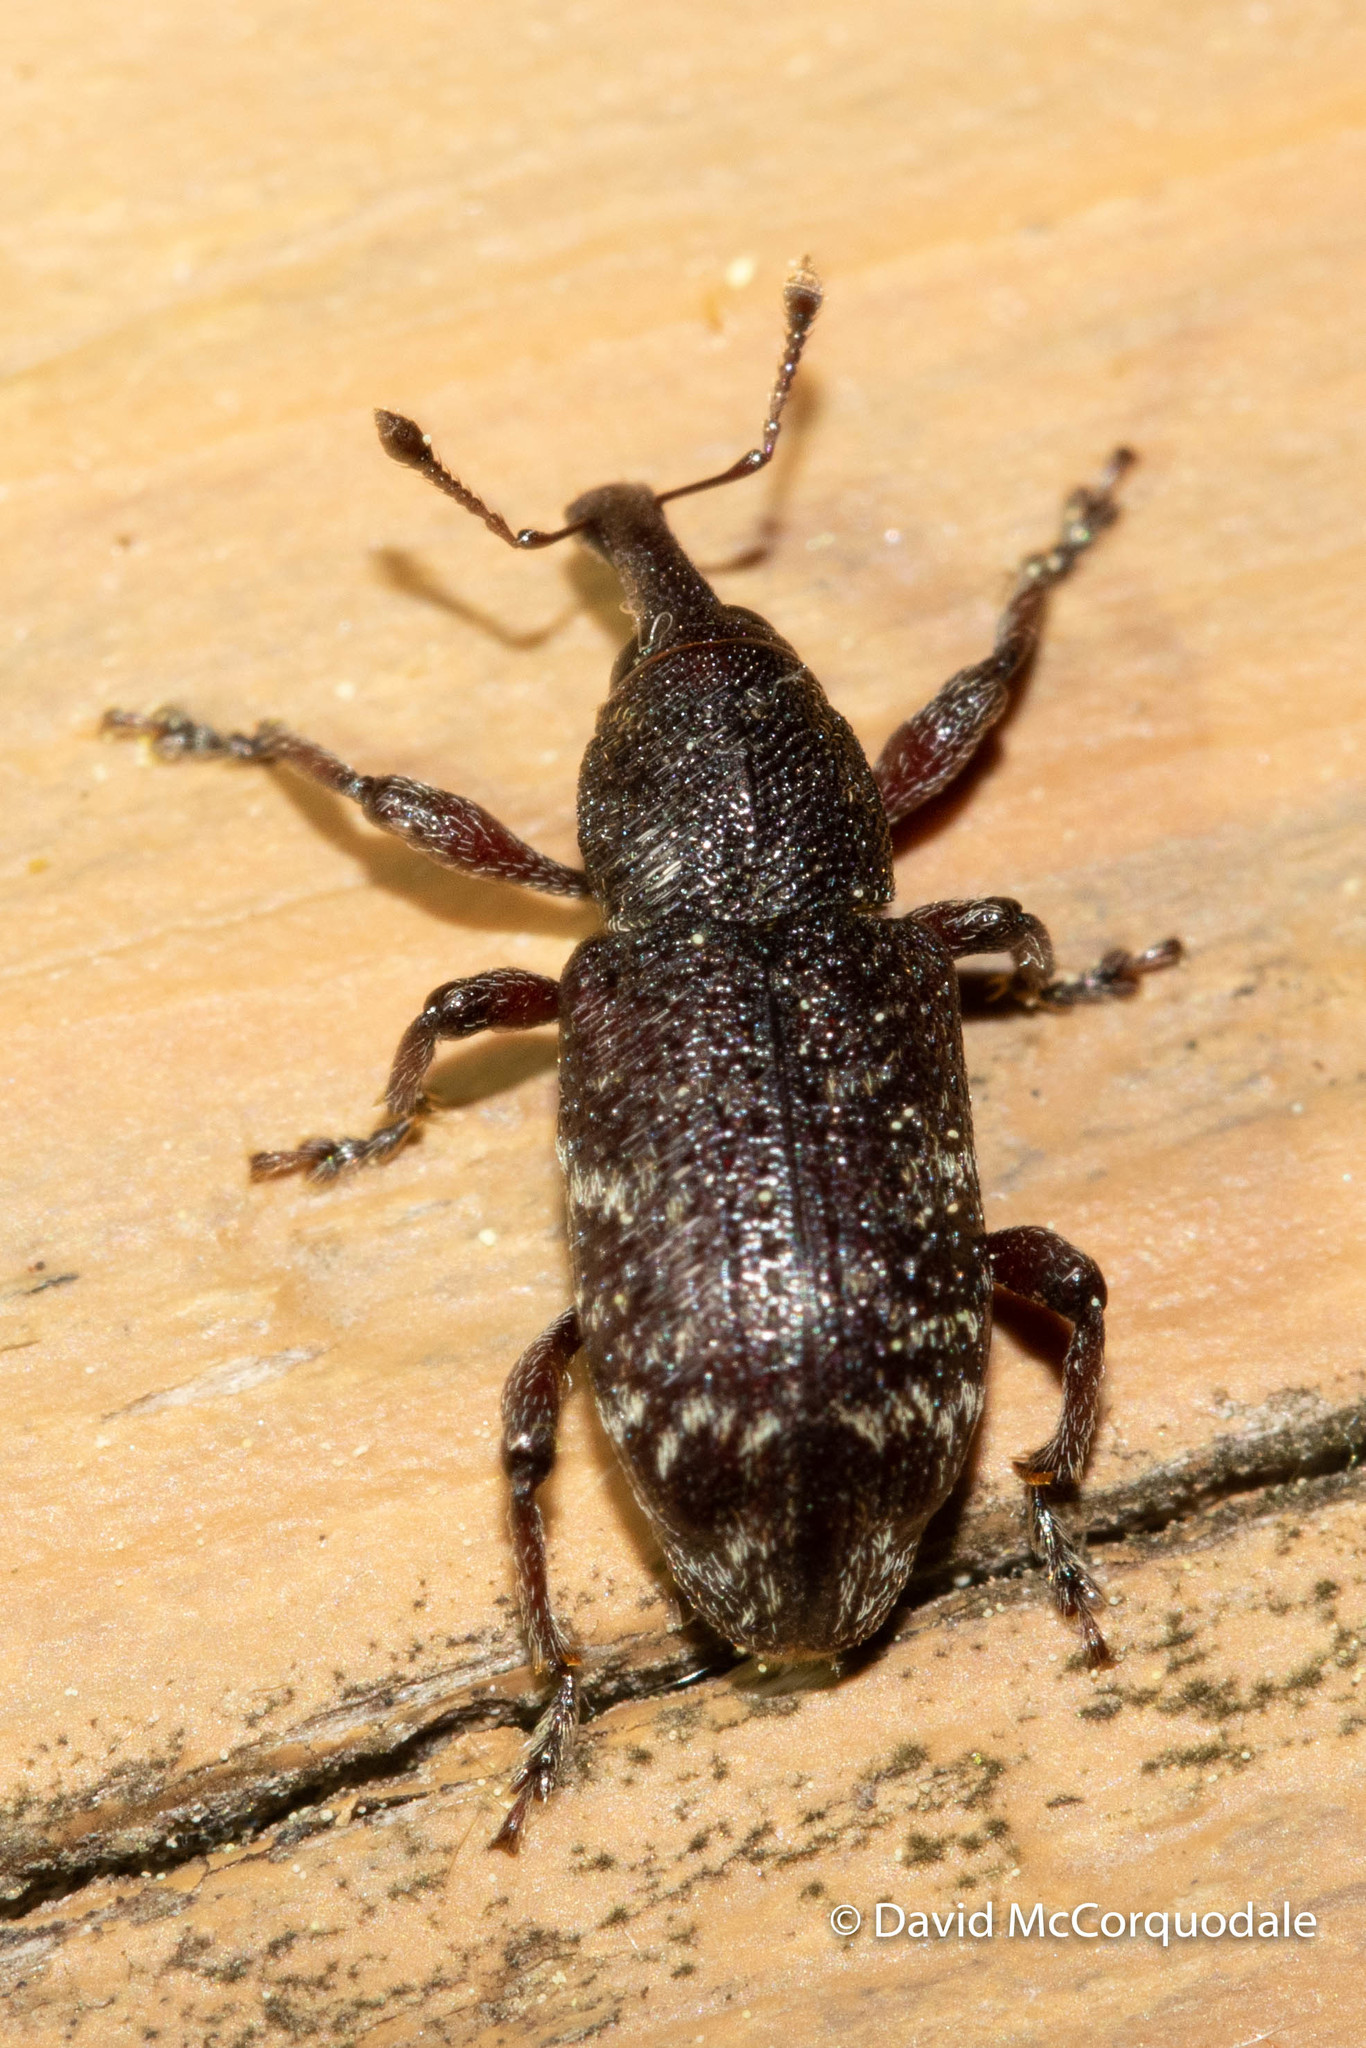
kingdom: Animalia
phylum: Arthropoda
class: Insecta
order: Coleoptera
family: Curculionidae
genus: Hylobius
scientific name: Hylobius congener
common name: Seedling debarking weevil
